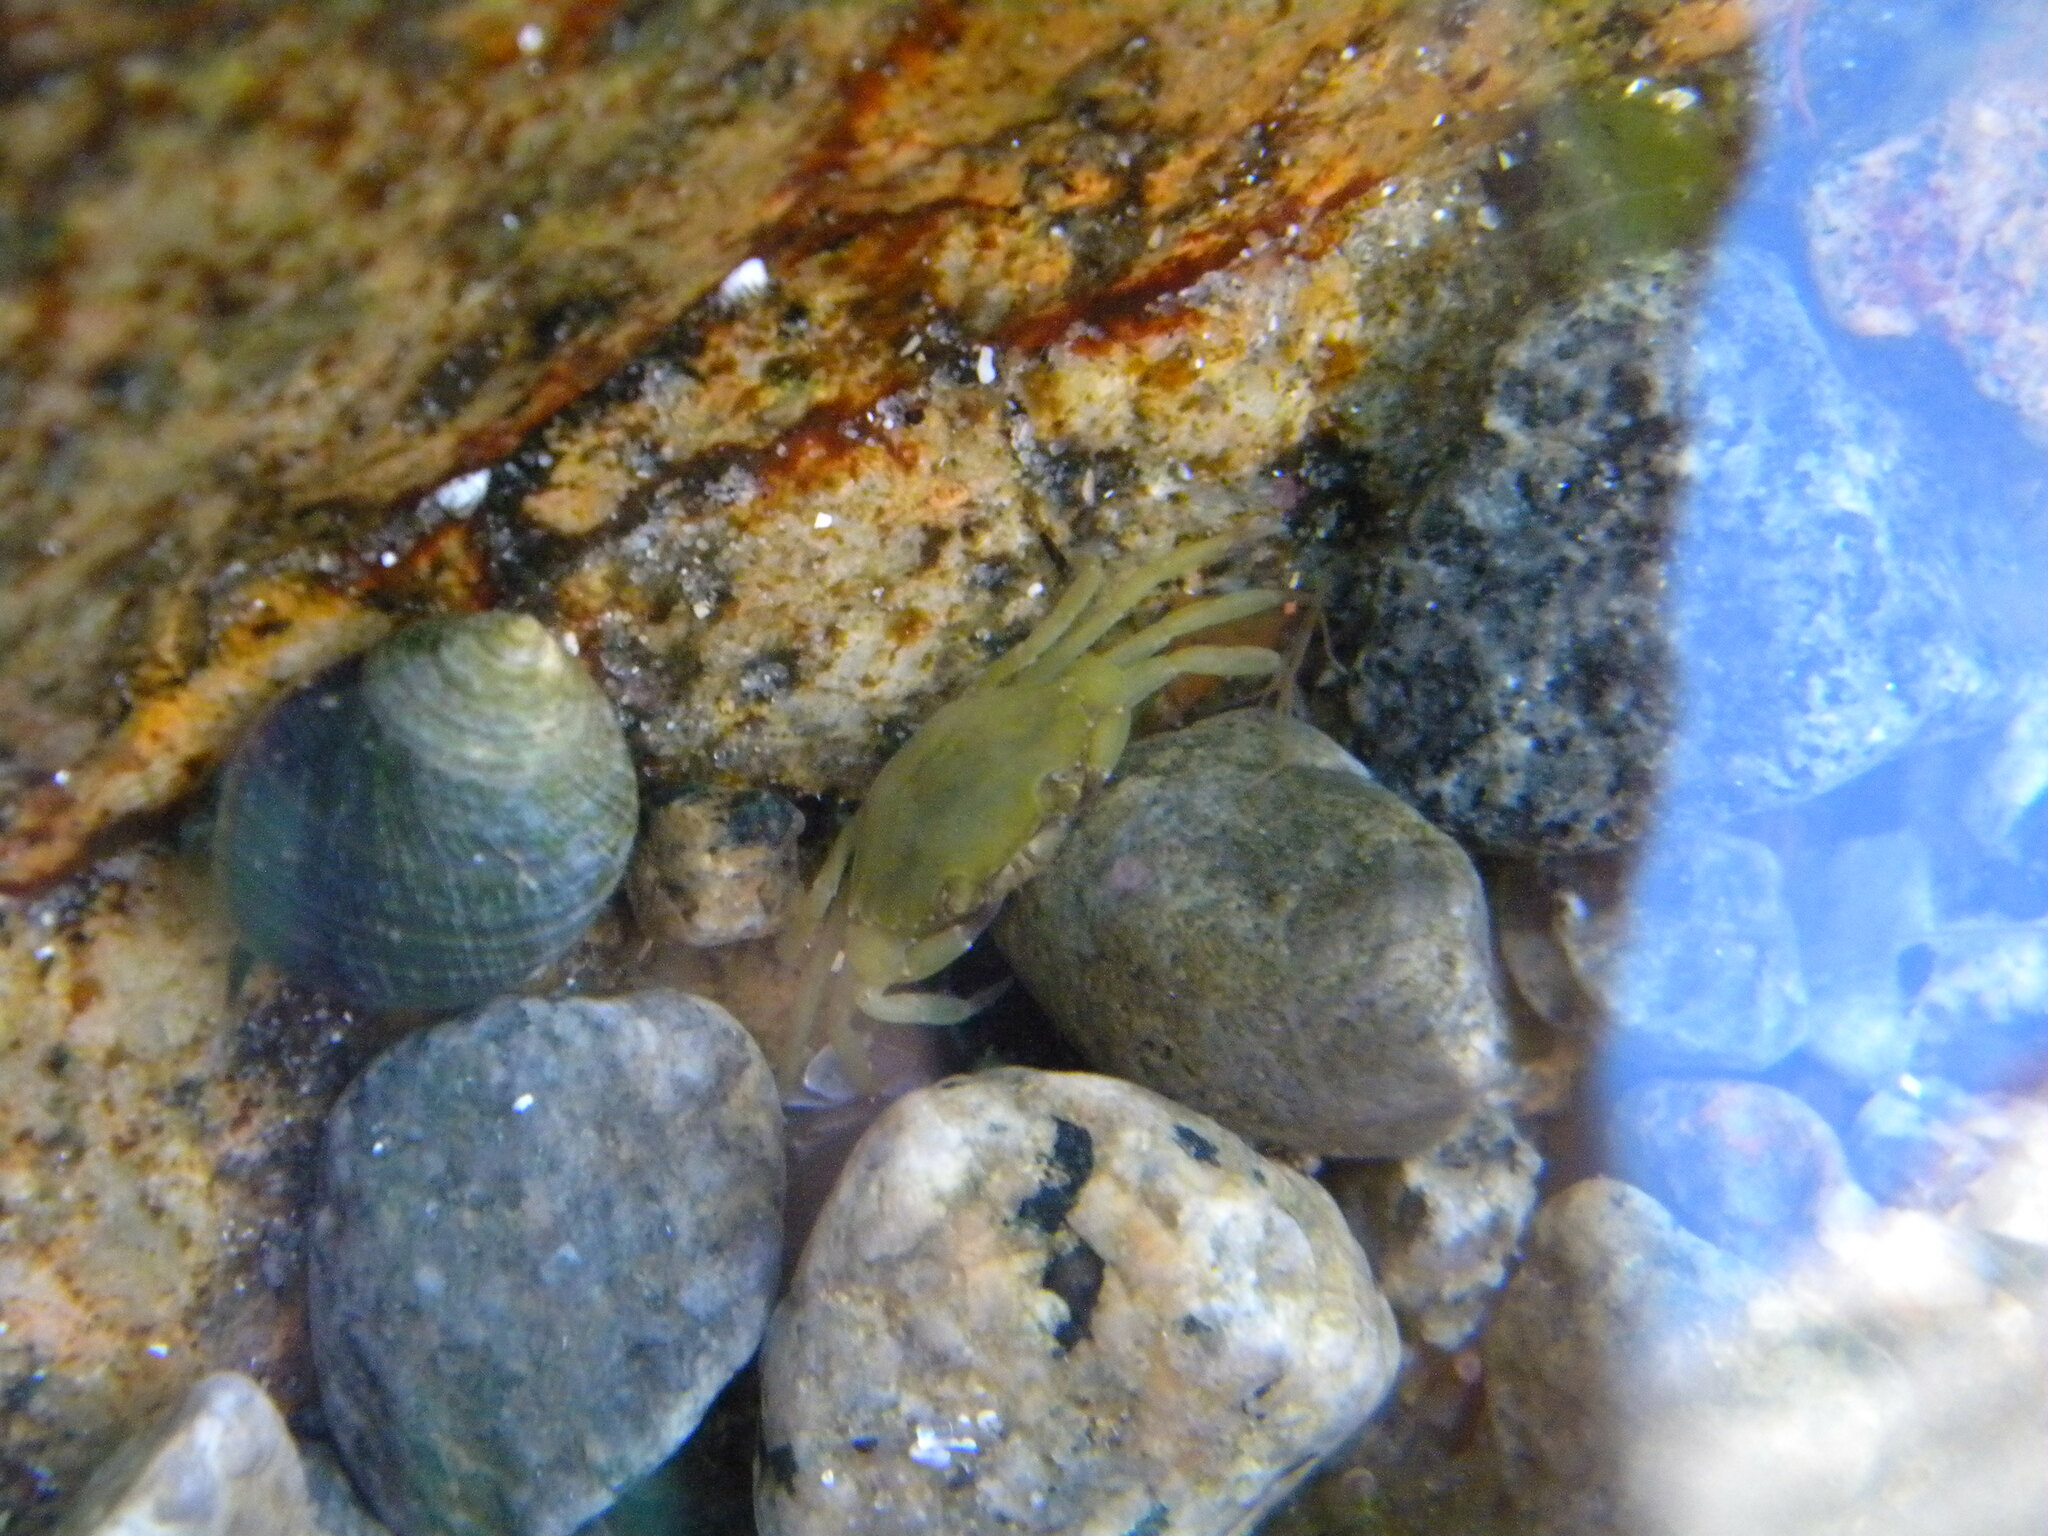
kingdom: Animalia
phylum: Arthropoda
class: Malacostraca
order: Decapoda
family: Carcinidae
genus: Carcinus
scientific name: Carcinus maenas
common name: European green crab
